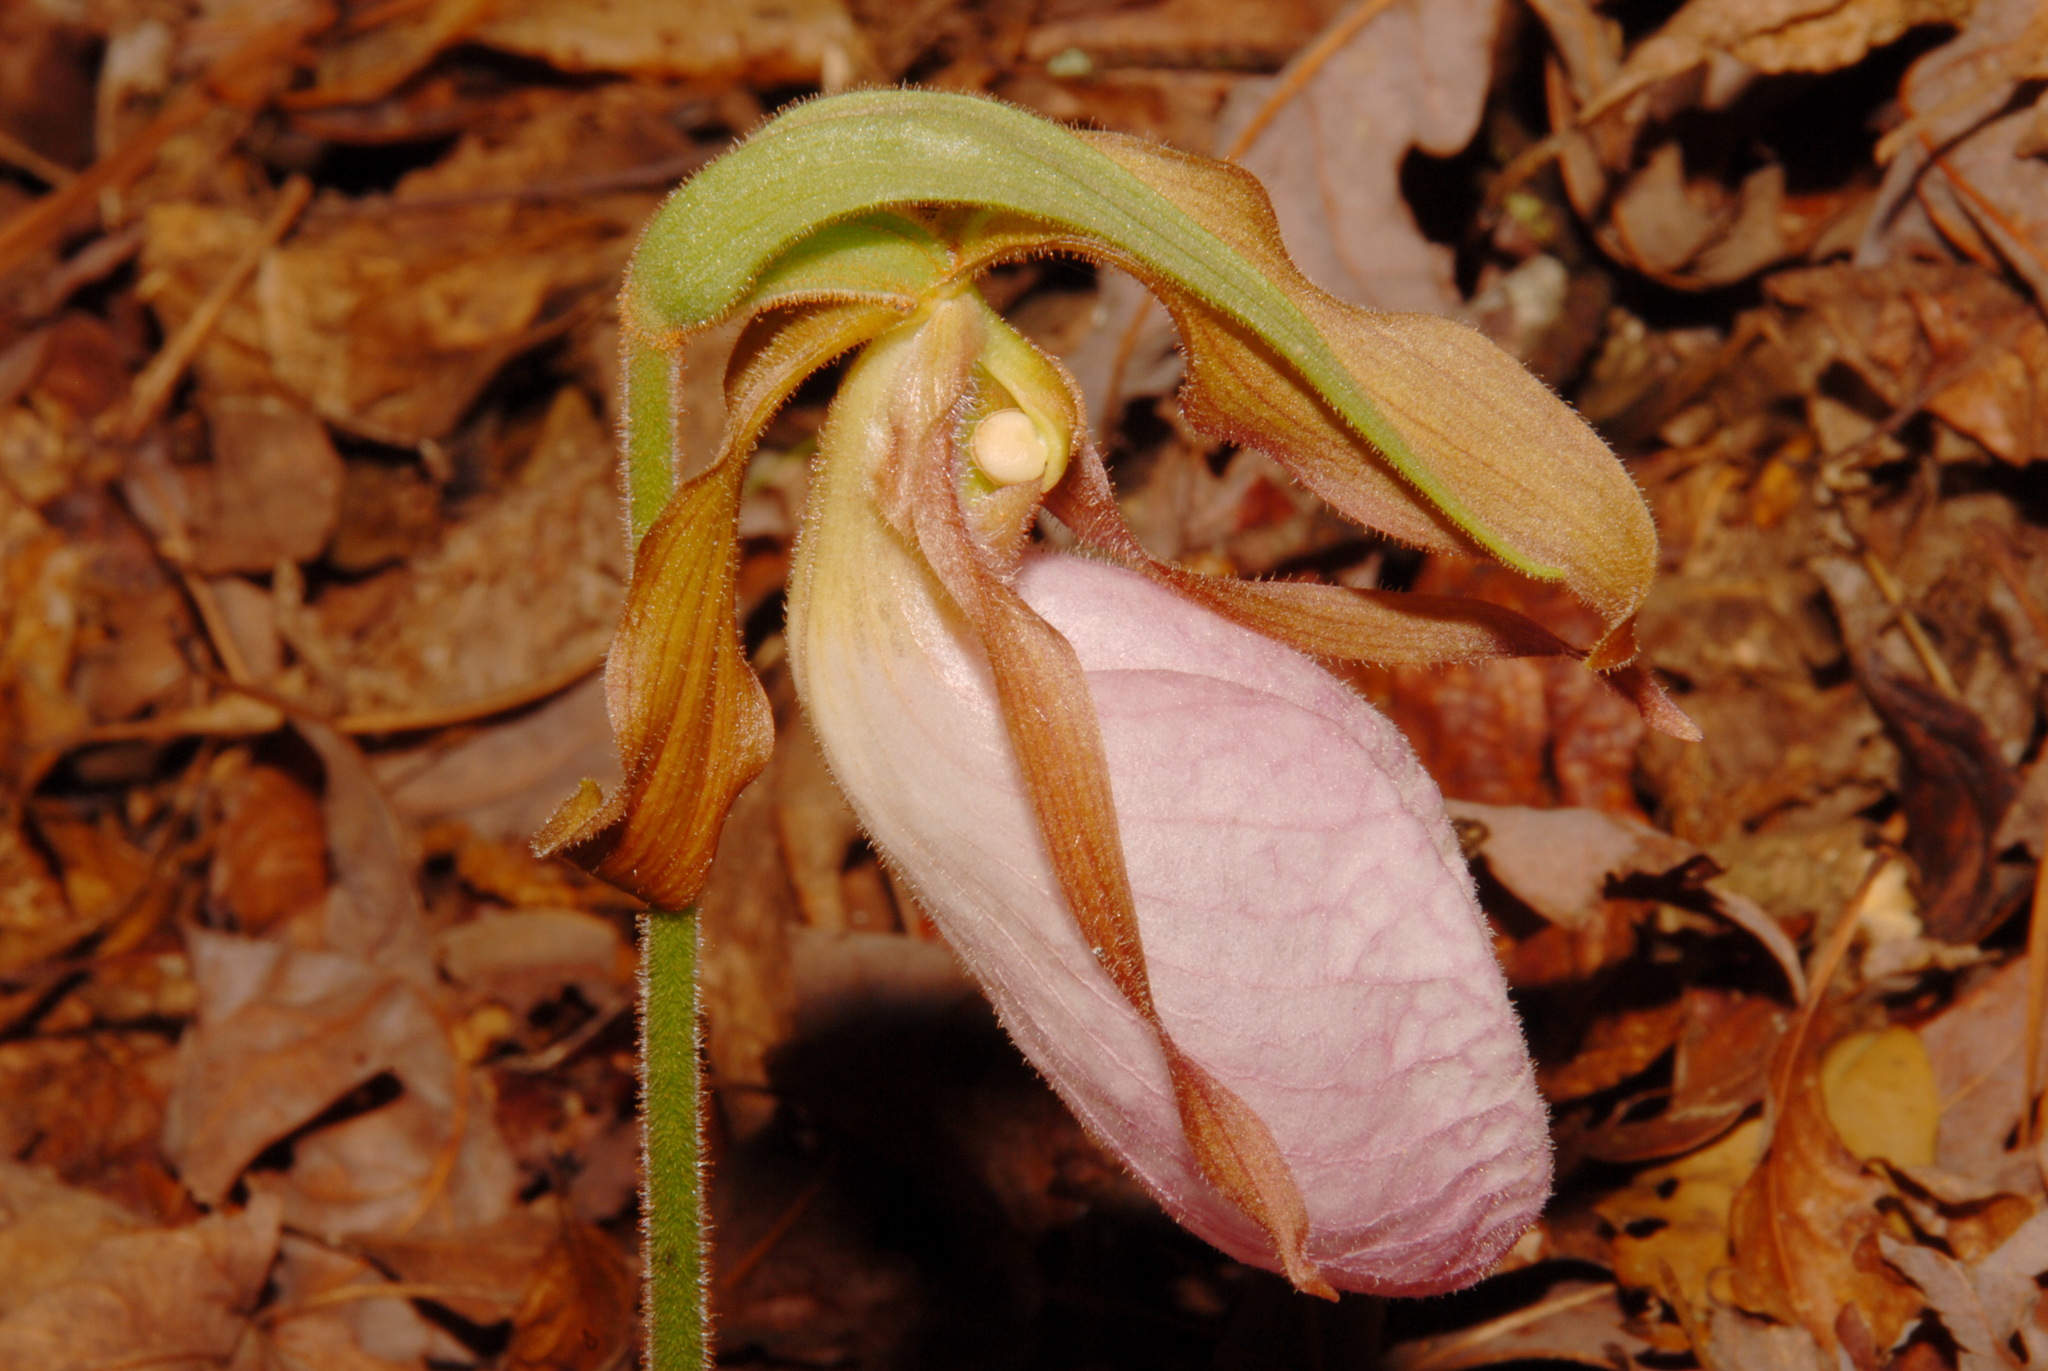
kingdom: Plantae
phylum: Tracheophyta
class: Liliopsida
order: Asparagales
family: Orchidaceae
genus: Cypripedium
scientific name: Cypripedium acaule
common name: Pink lady's-slipper
